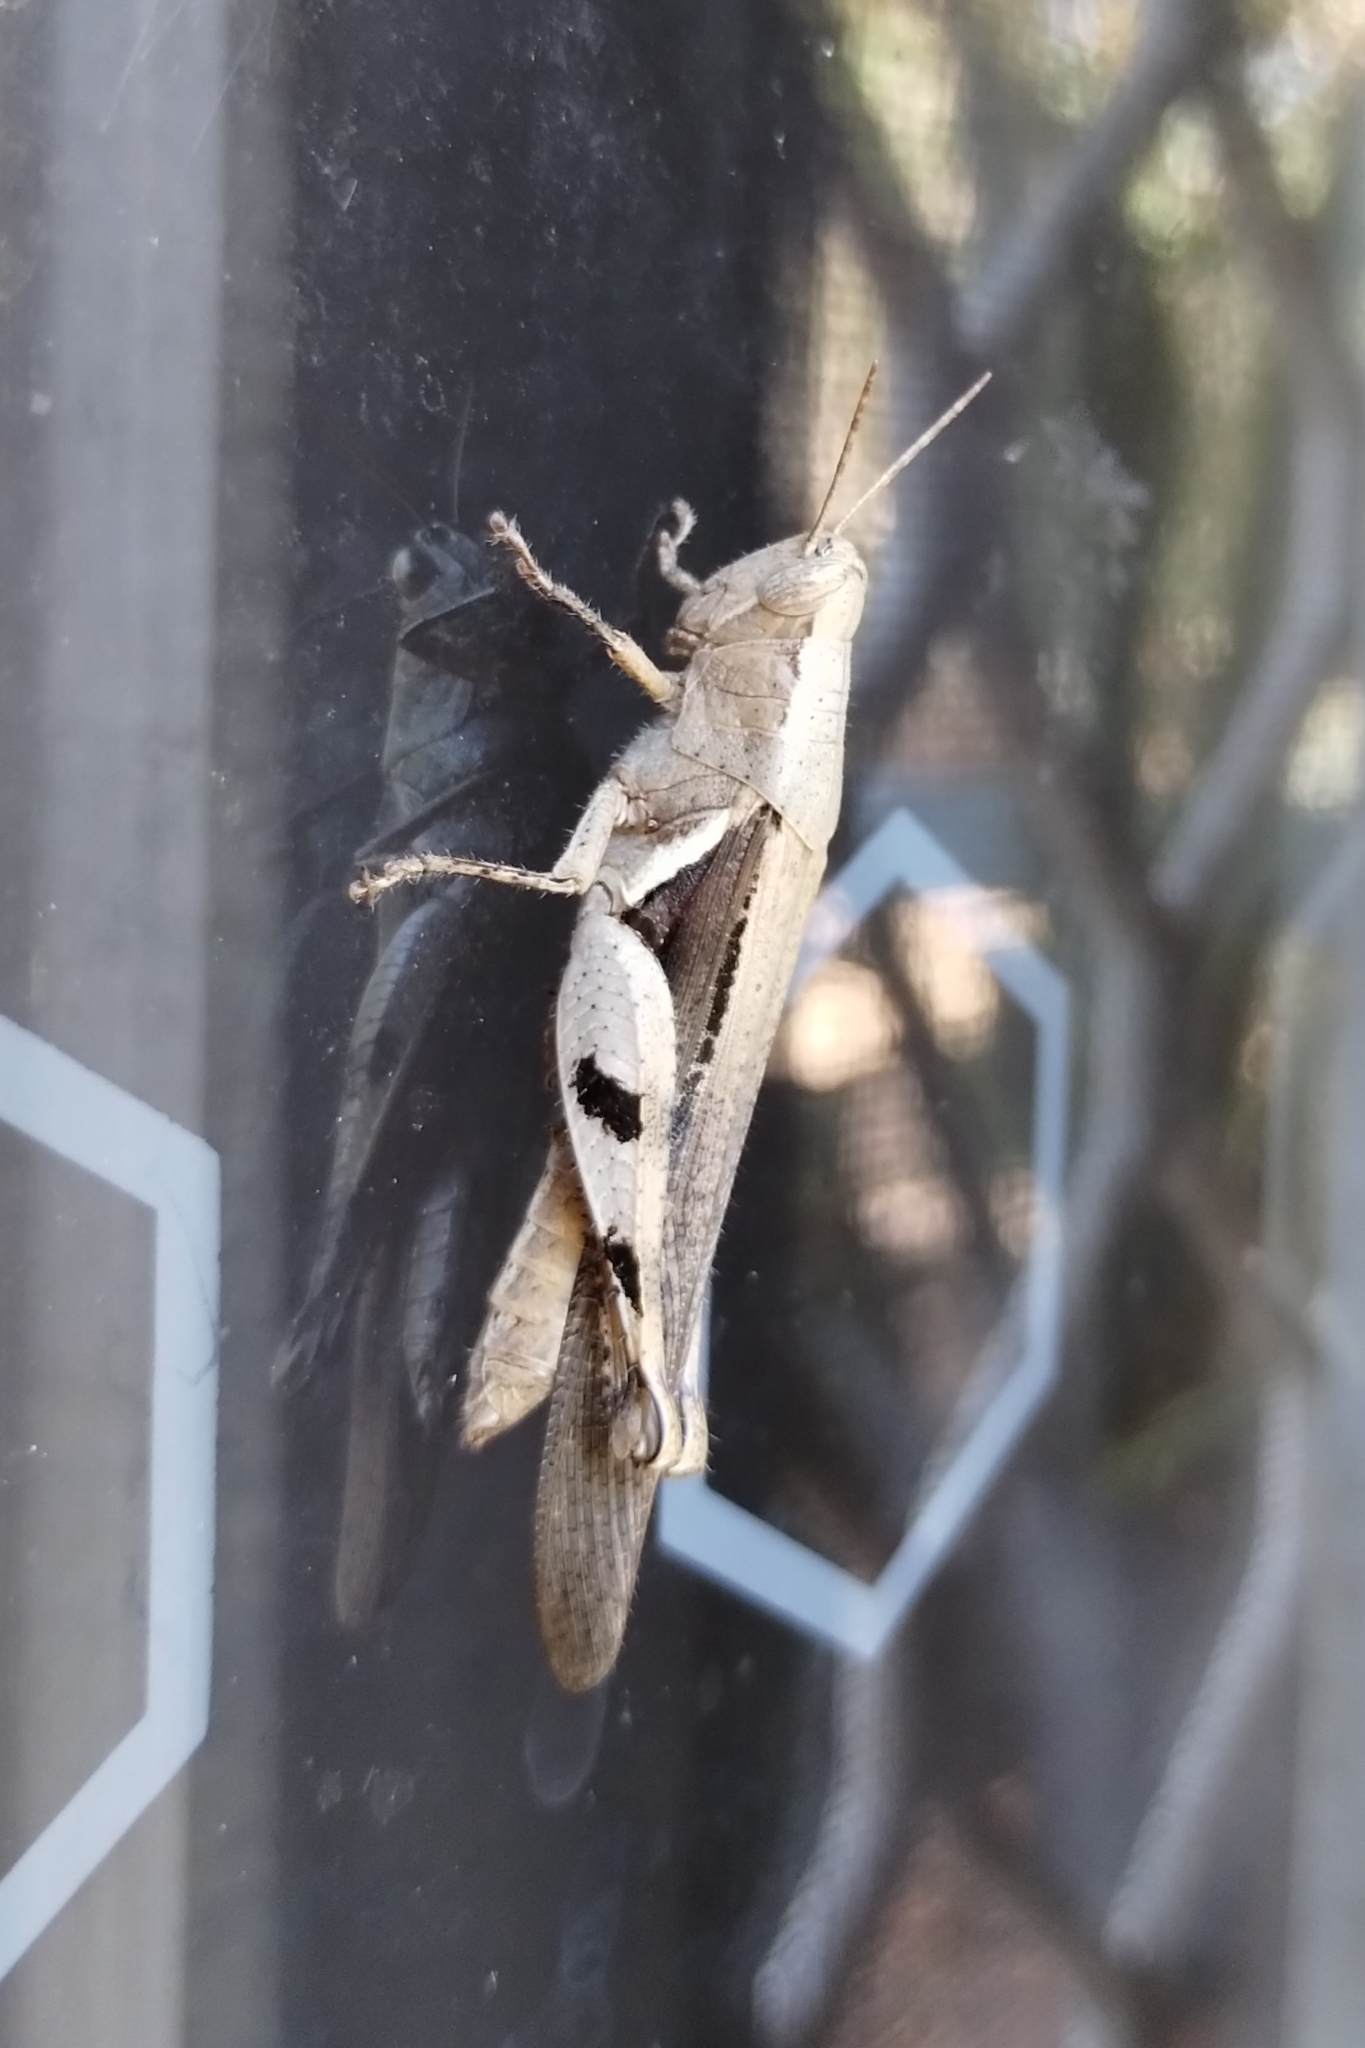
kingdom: Animalia
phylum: Arthropoda
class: Insecta
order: Orthoptera
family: Acrididae
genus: Stenocatantops
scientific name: Stenocatantops angustifrons
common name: Common tropical sharptail
